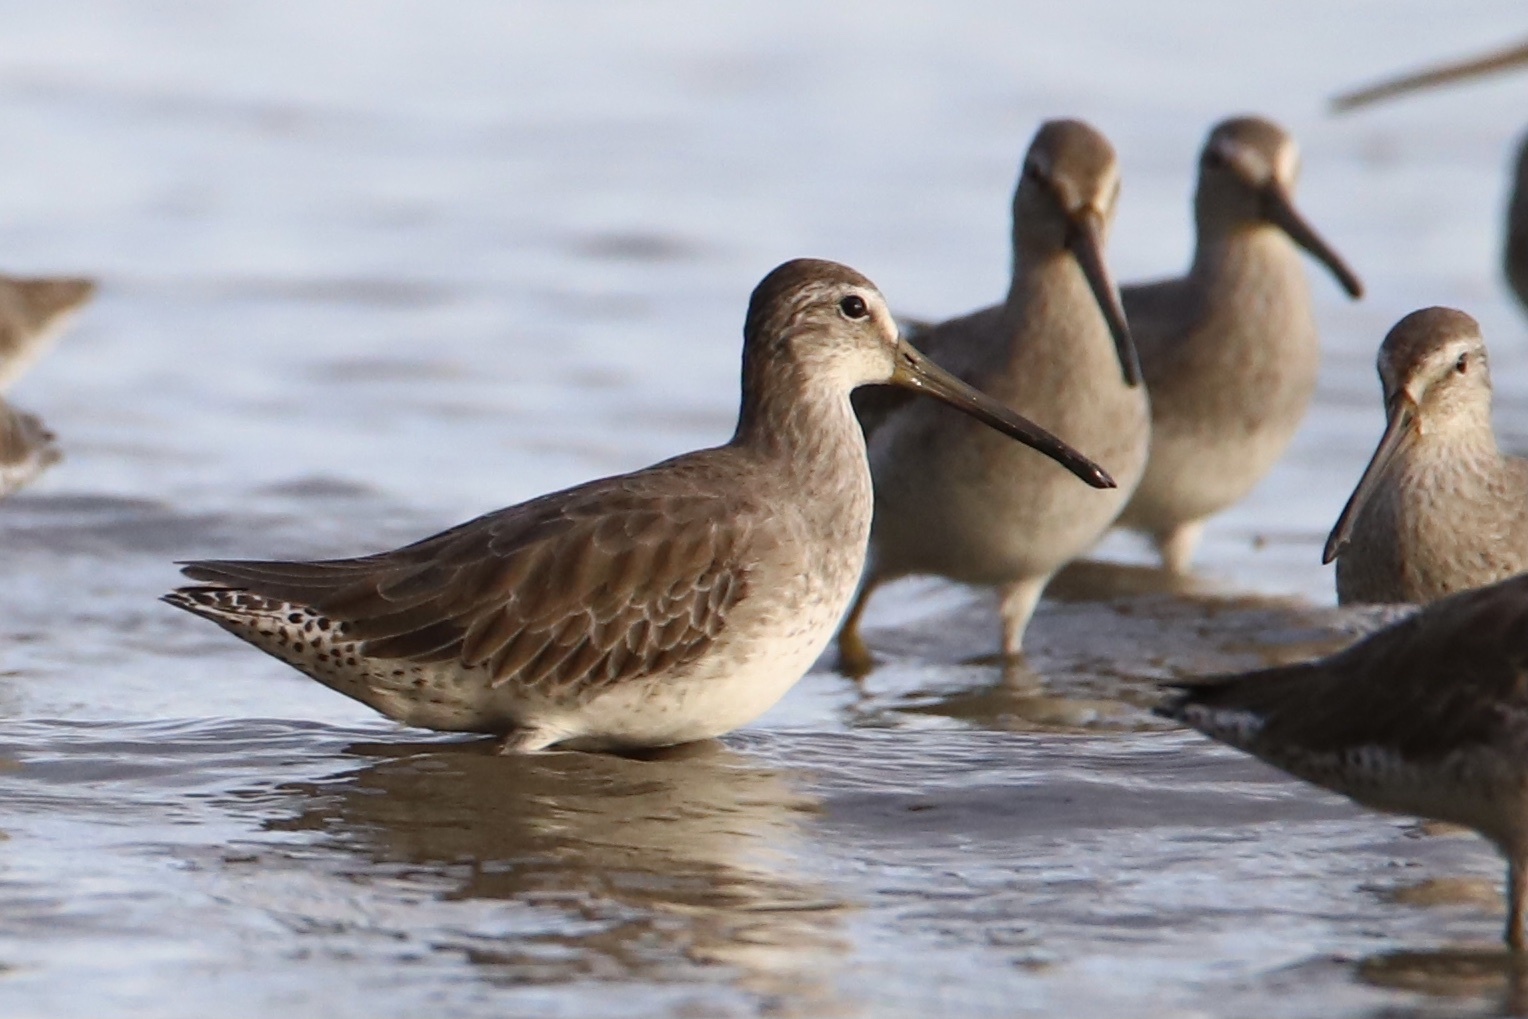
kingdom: Animalia
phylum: Chordata
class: Aves
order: Charadriiformes
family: Scolopacidae
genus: Limnodromus
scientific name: Limnodromus griseus
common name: Short-billed dowitcher
